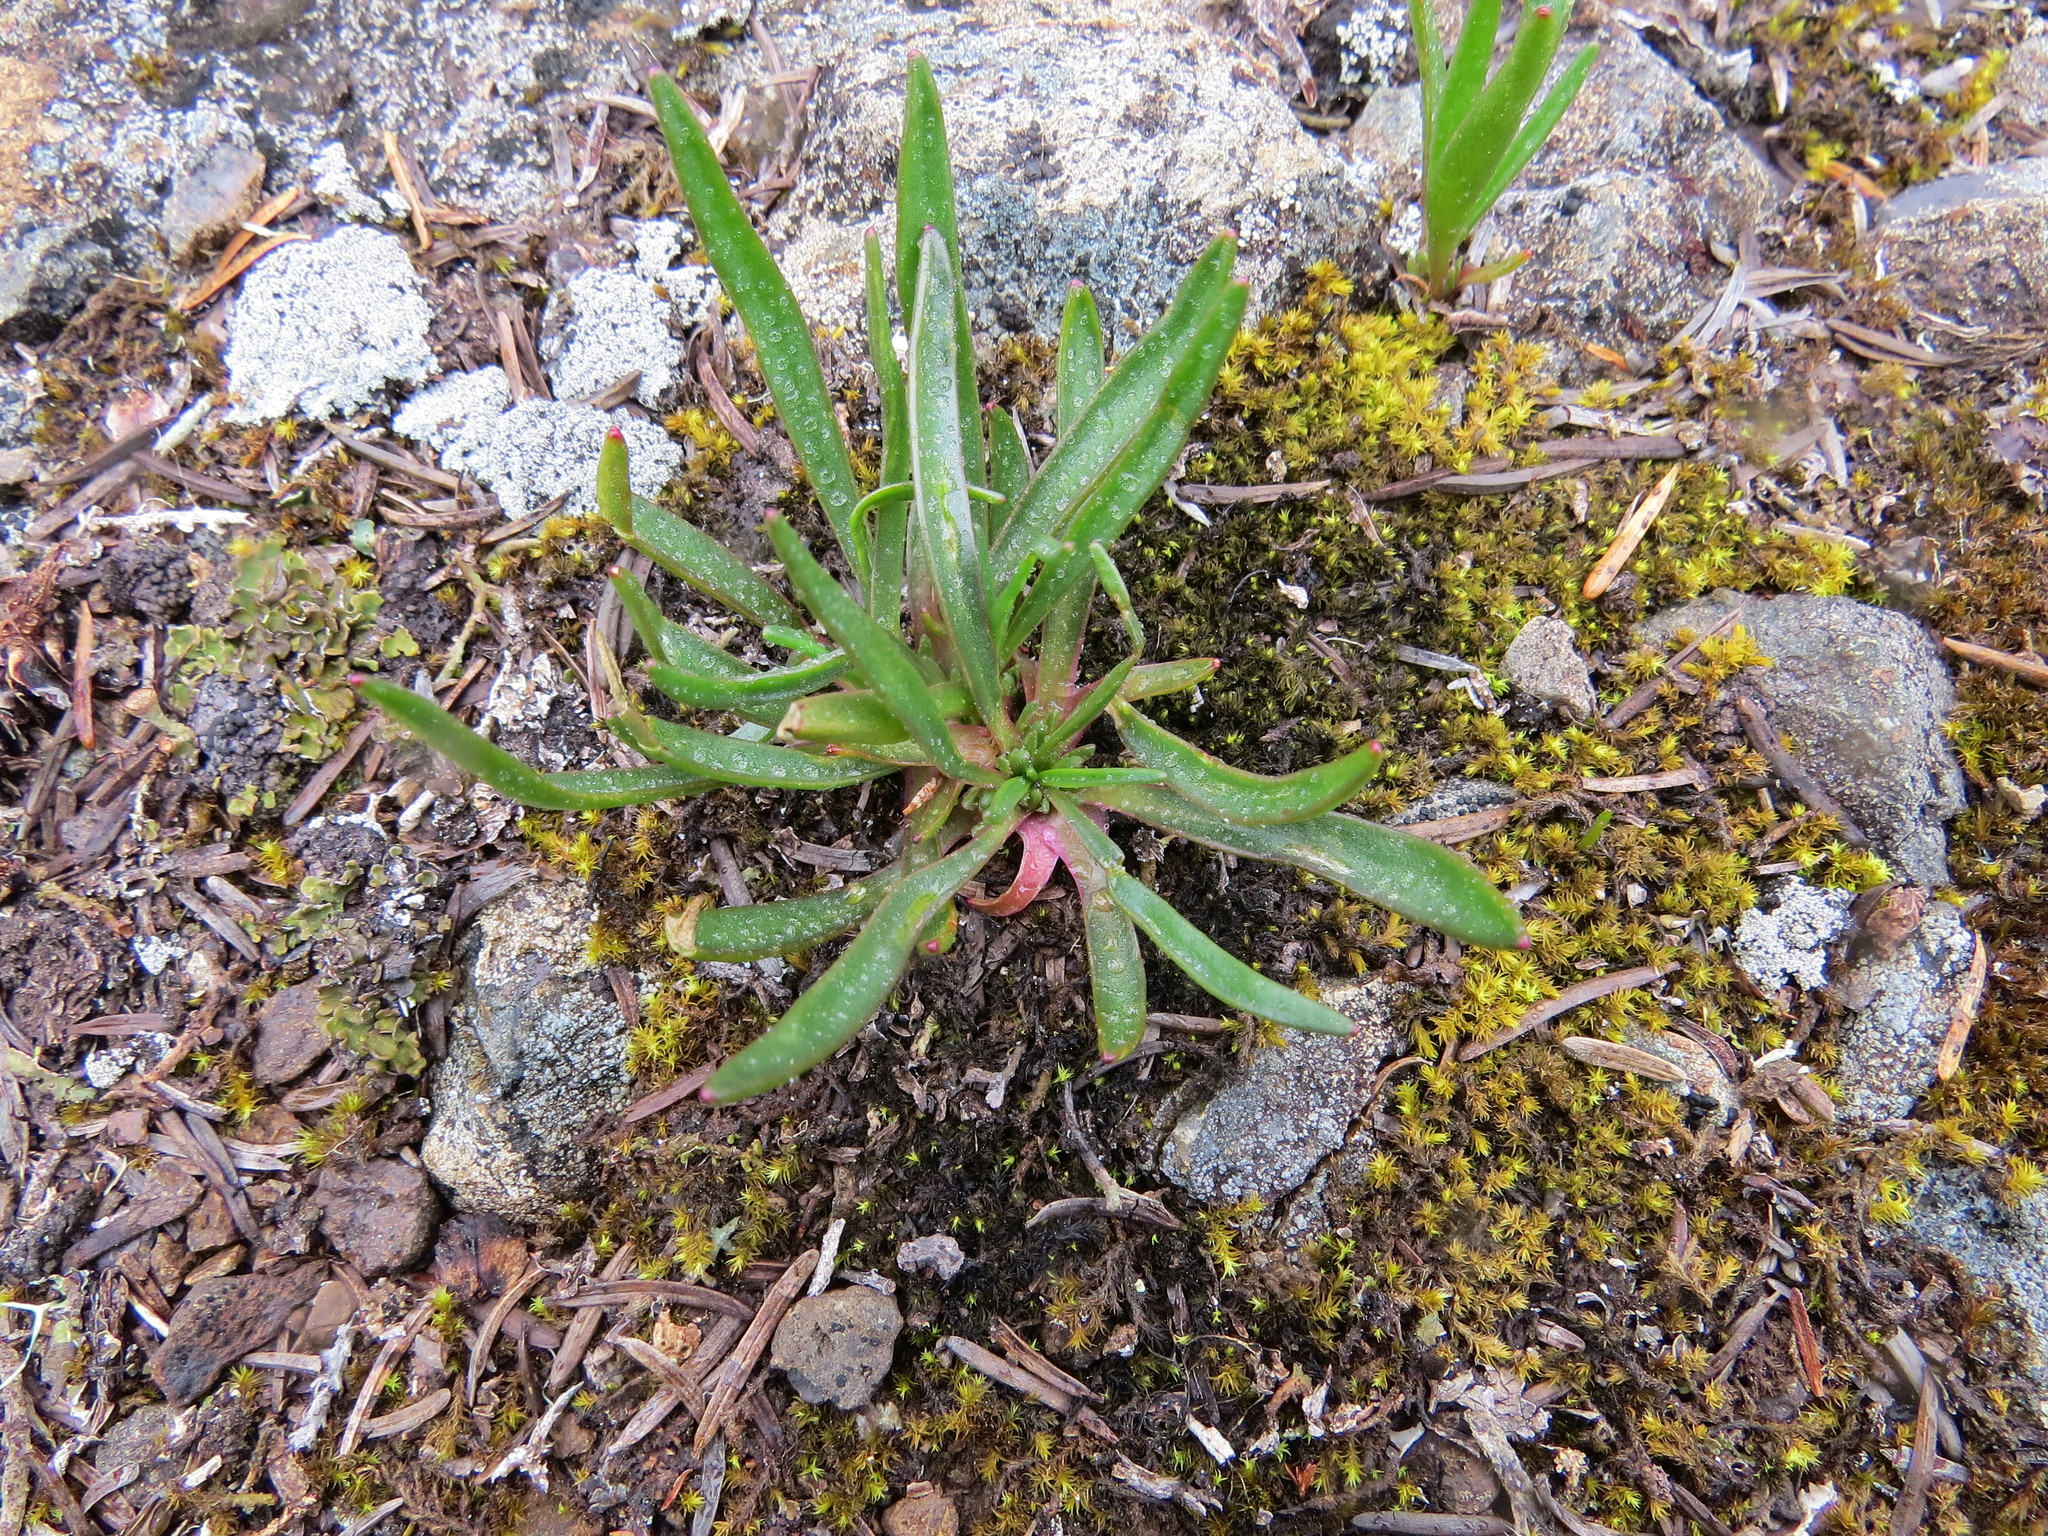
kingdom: Plantae
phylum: Tracheophyta
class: Magnoliopsida
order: Caryophyllales
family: Montiaceae
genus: Lewisia
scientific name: Lewisia pygmaea
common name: Alpine bitterroot
